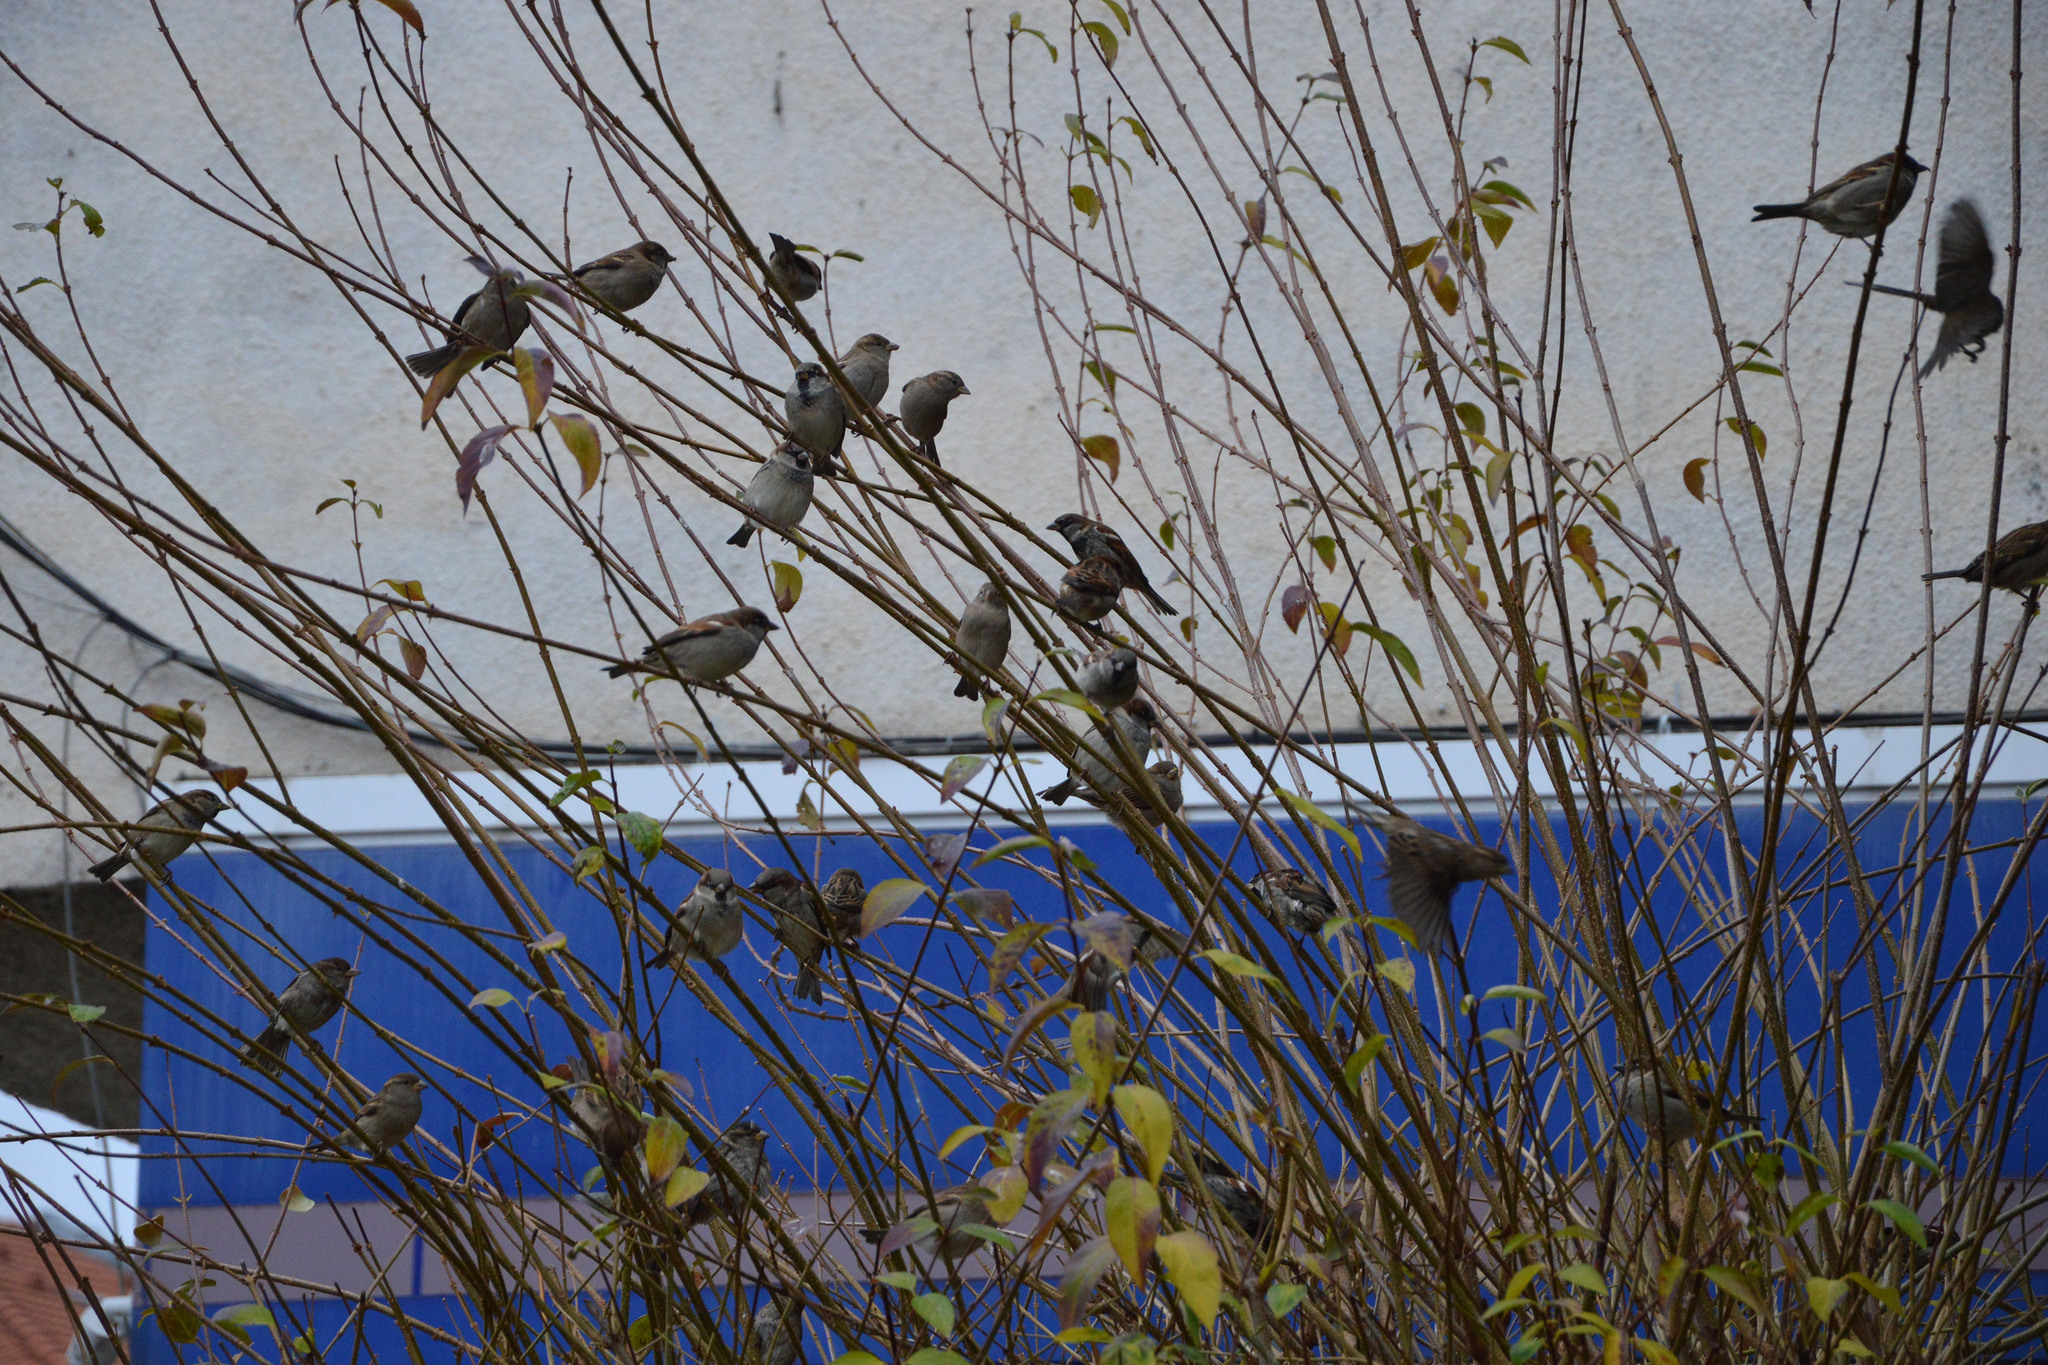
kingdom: Animalia
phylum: Chordata
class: Aves
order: Passeriformes
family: Passeridae
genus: Passer
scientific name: Passer domesticus
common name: House sparrow
